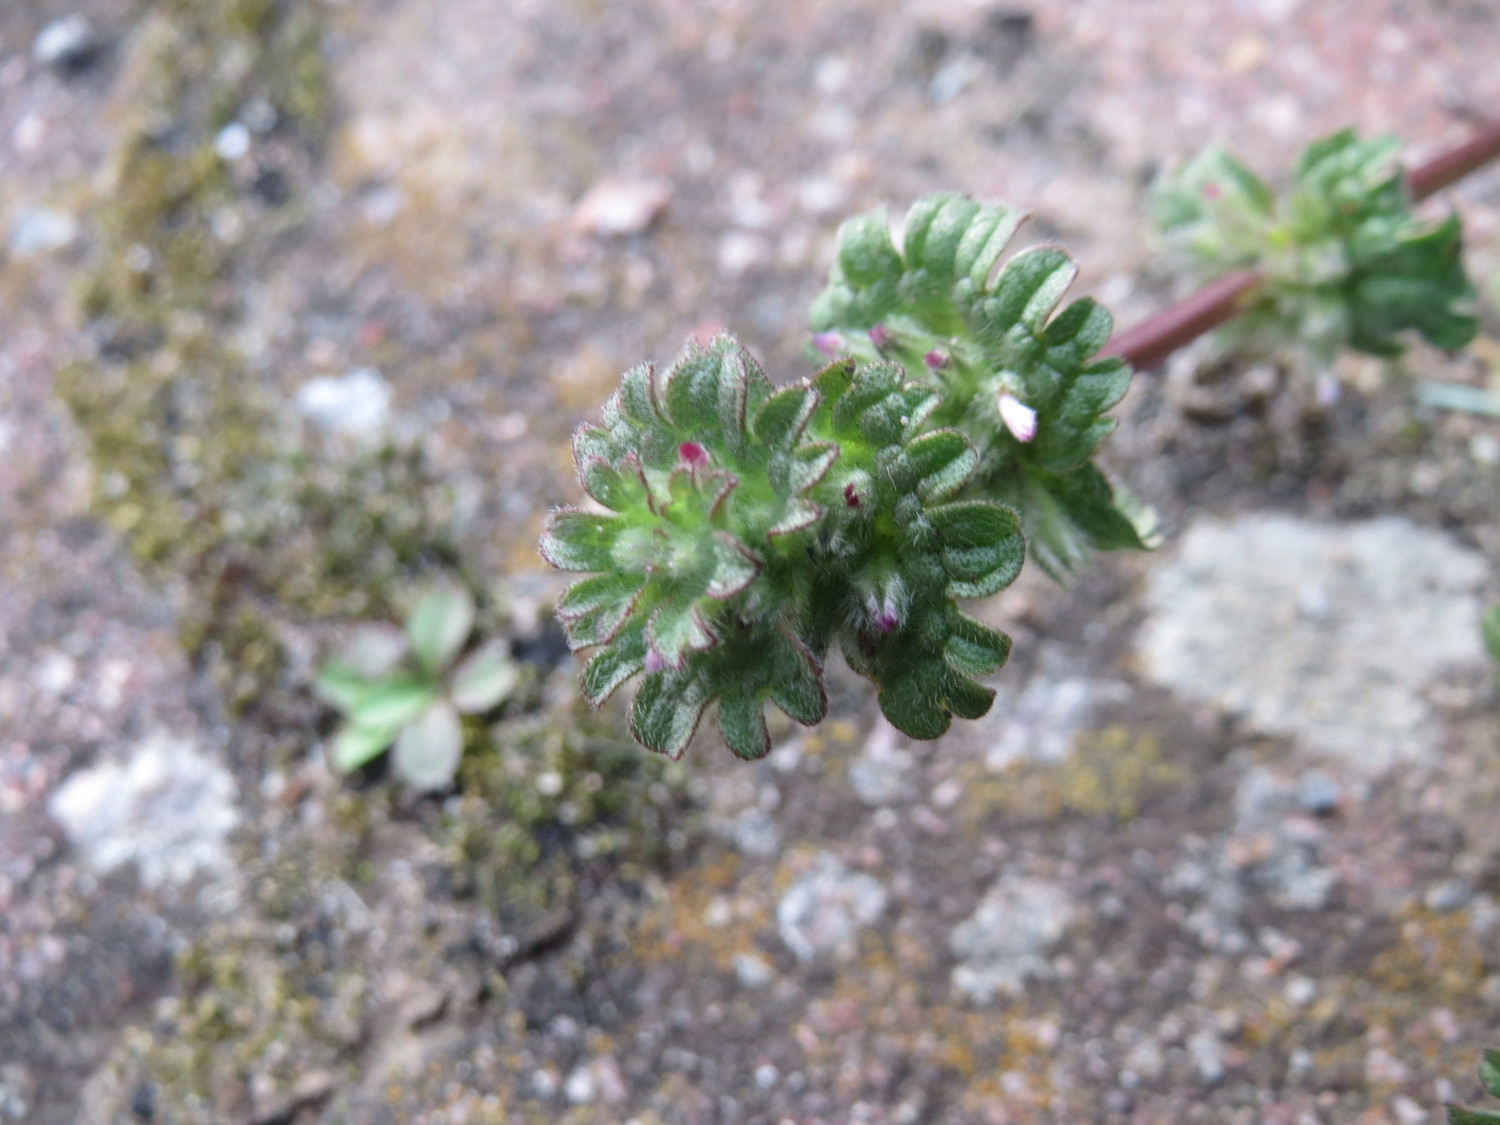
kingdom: Plantae
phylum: Tracheophyta
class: Magnoliopsida
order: Lamiales
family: Lamiaceae
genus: Lamium
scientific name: Lamium amplexicaule
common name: Henbit dead-nettle
